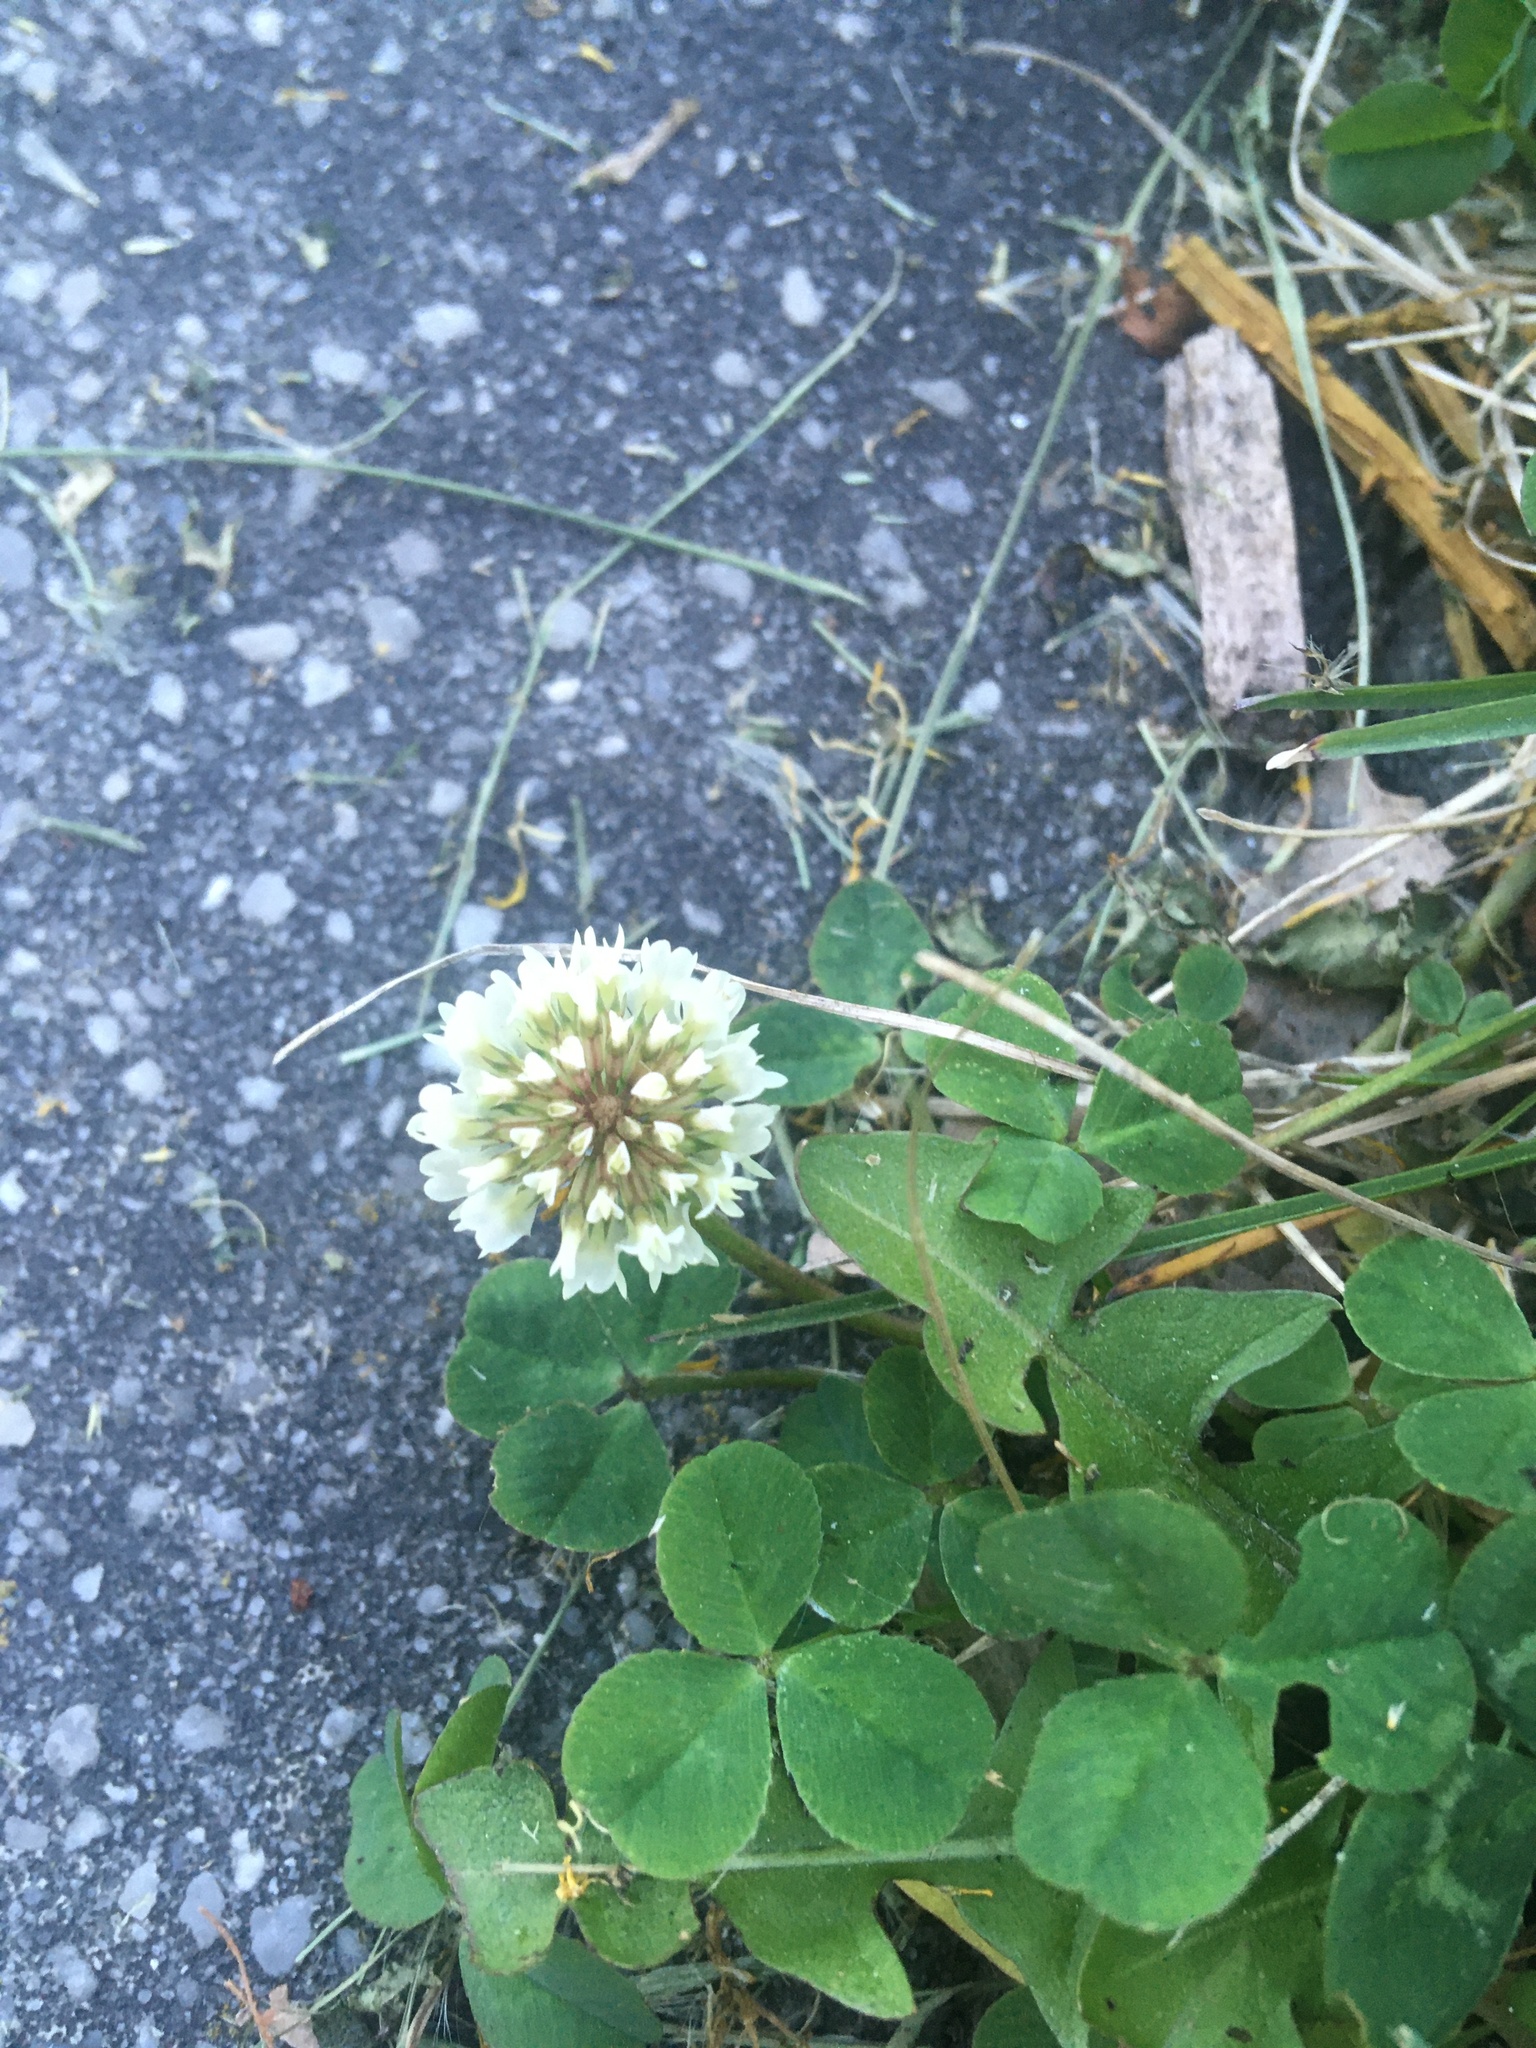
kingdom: Plantae
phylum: Tracheophyta
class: Magnoliopsida
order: Fabales
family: Fabaceae
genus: Trifolium
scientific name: Trifolium repens
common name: White clover
